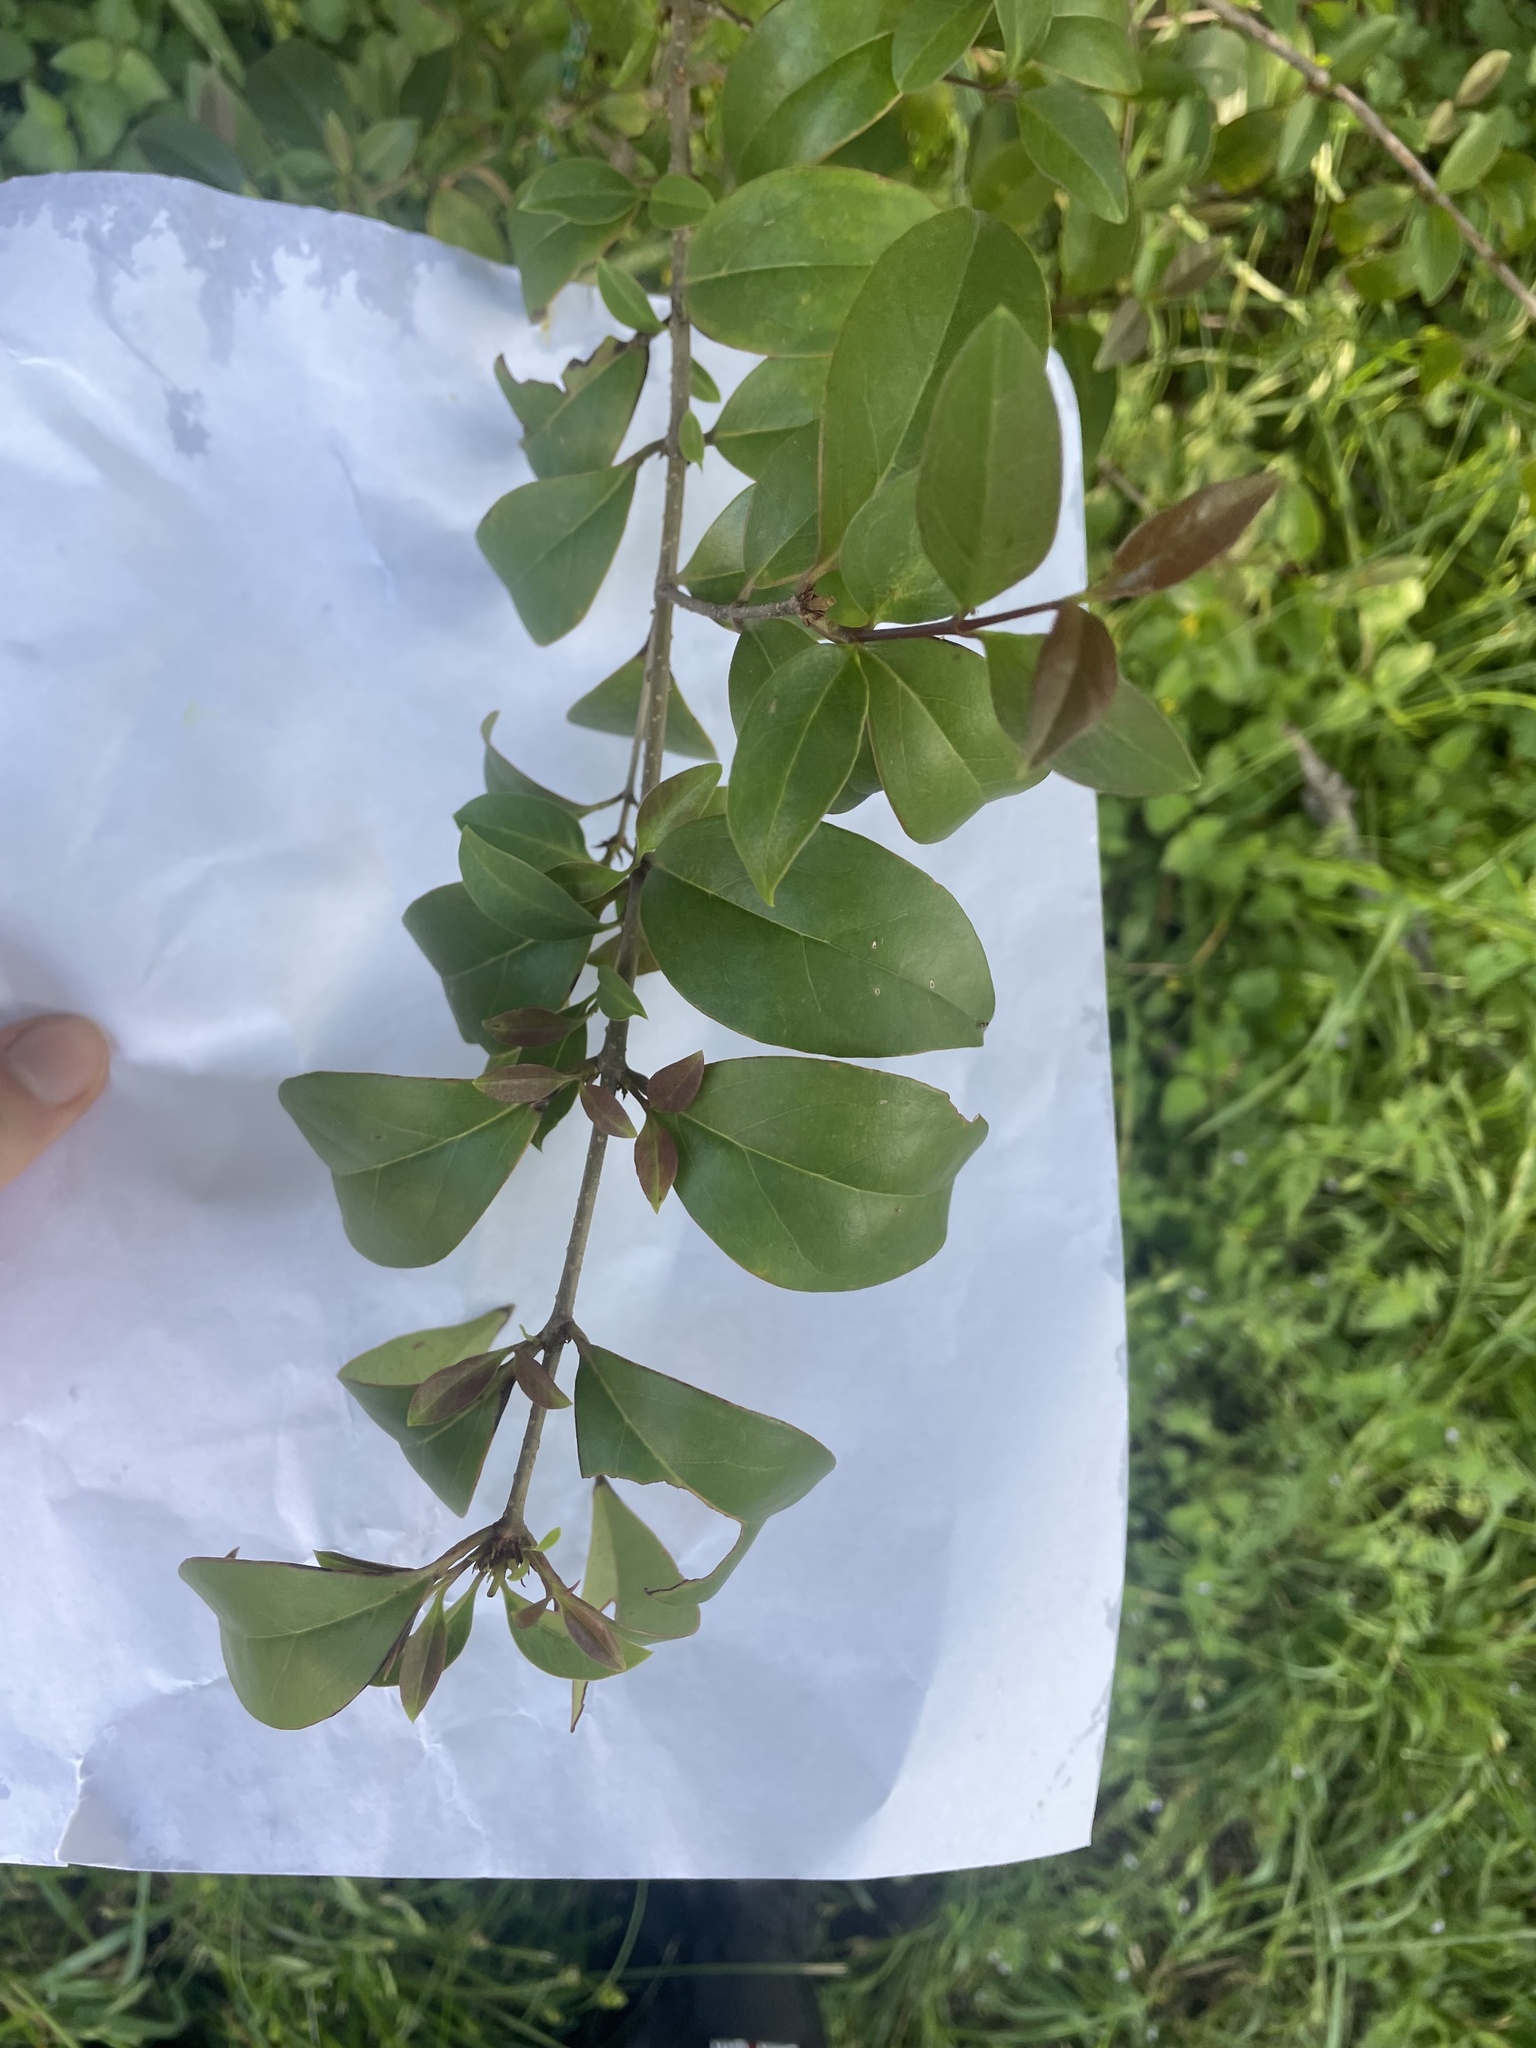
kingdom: Plantae
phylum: Tracheophyta
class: Magnoliopsida
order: Lamiales
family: Oleaceae
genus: Ligustrum
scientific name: Ligustrum lucidum
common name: Glossy privet
